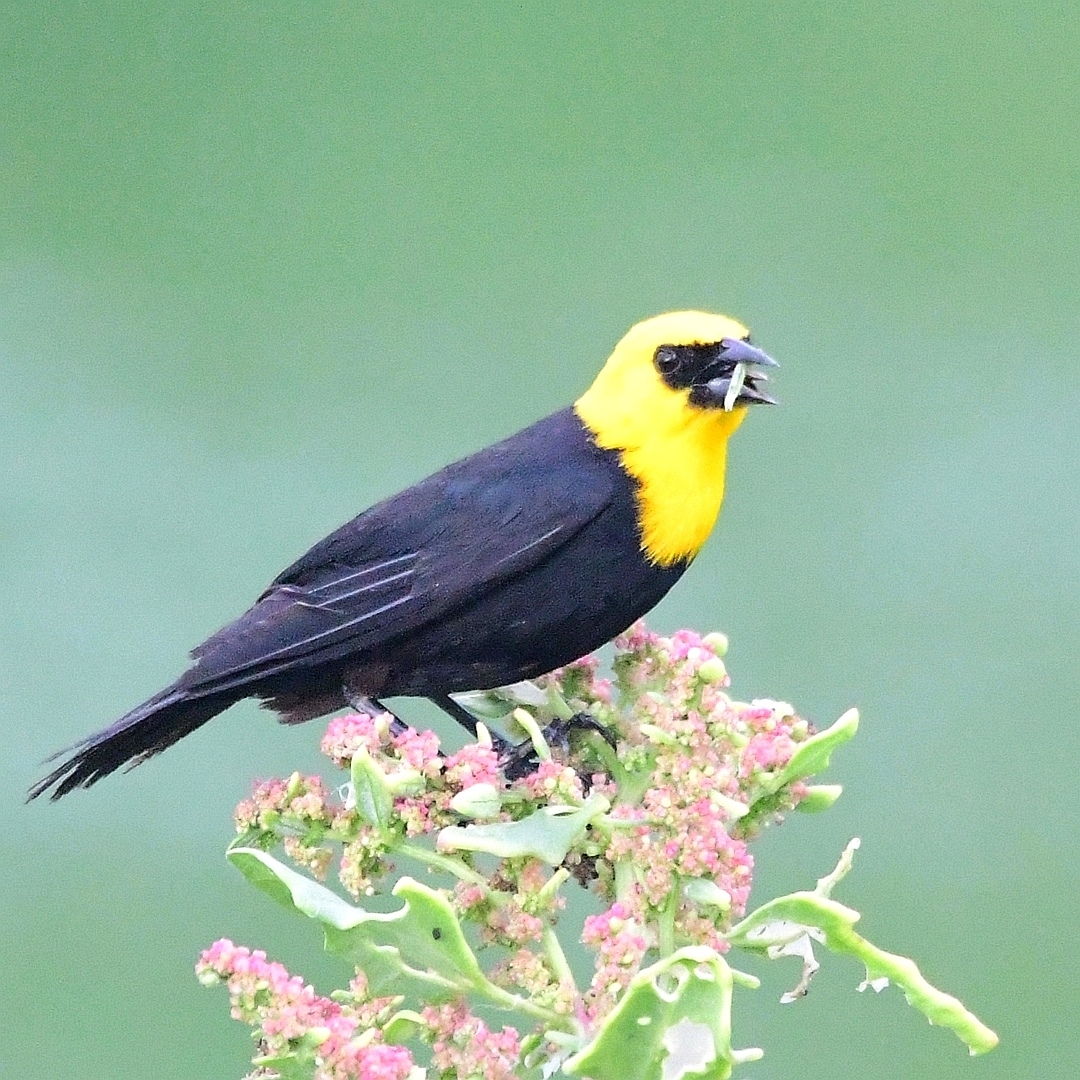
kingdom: Animalia
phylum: Chordata
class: Aves
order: Passeriformes
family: Icteridae
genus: Chrysomus
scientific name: Chrysomus icterocephalus
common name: Yellow-hooded blackbird
